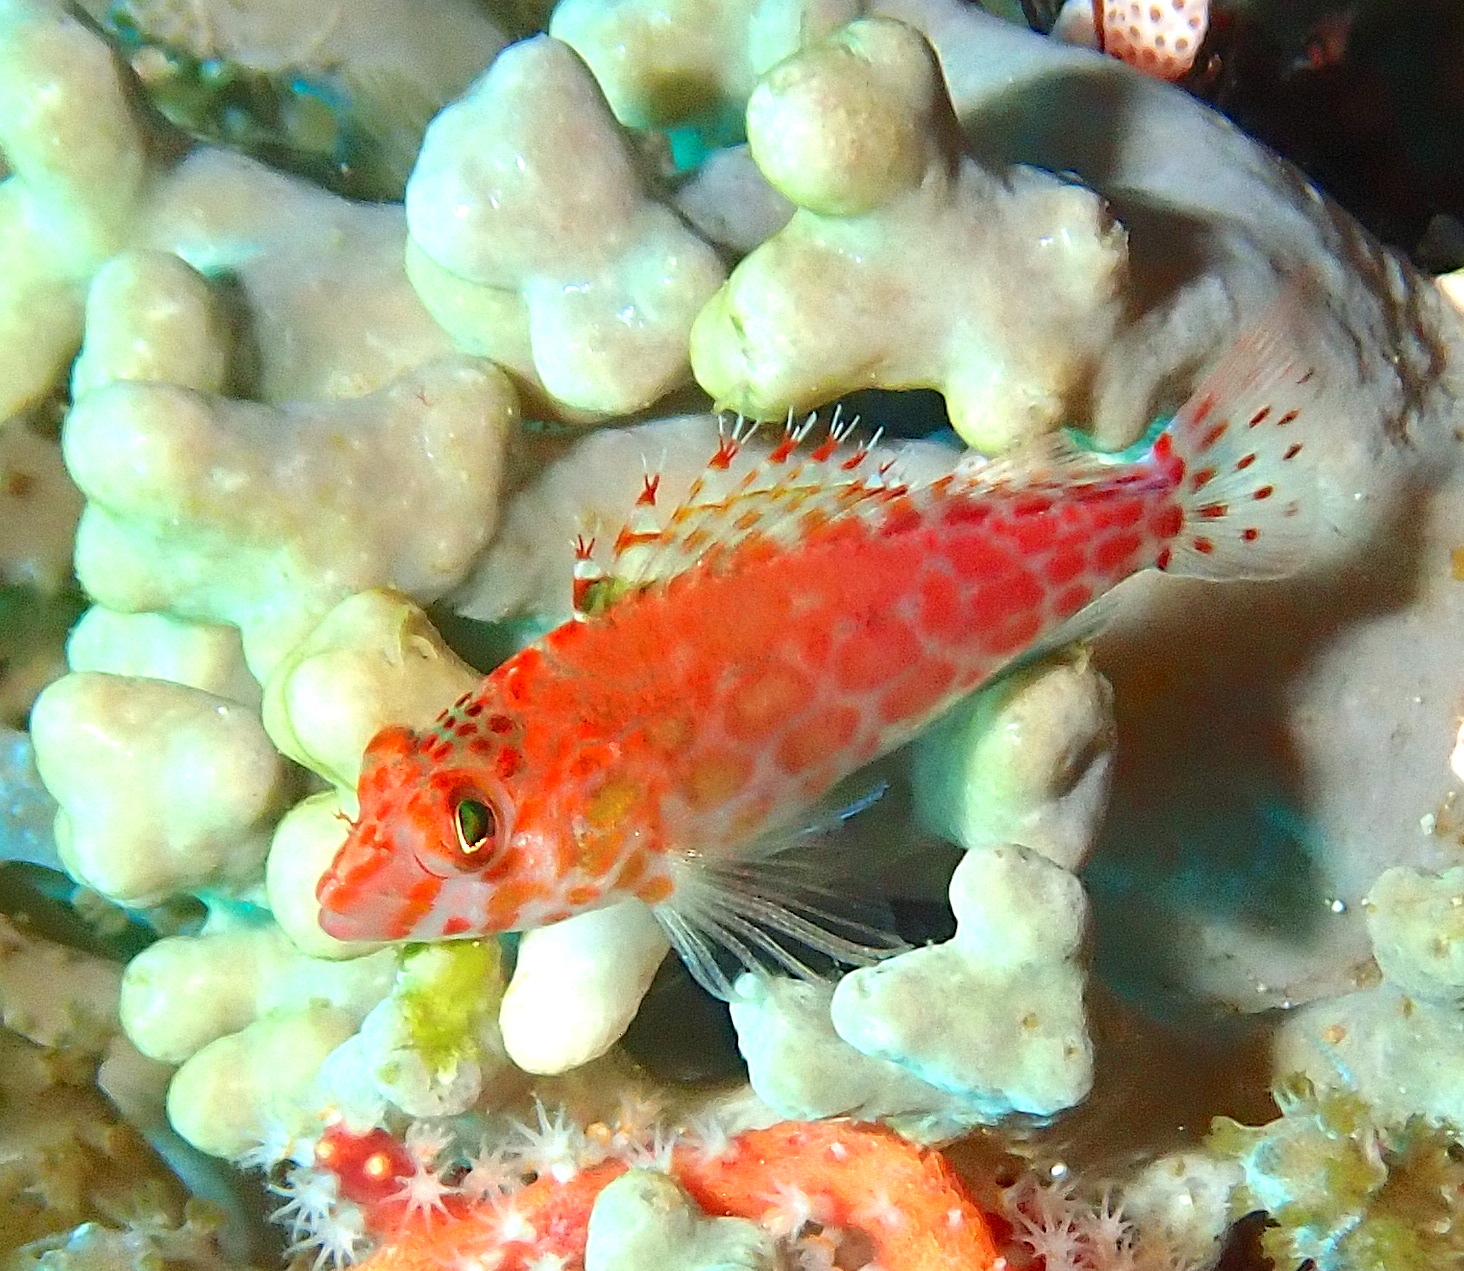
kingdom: Animalia
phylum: Chordata
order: Perciformes
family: Cirrhitidae
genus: Cirrhitichthys
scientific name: Cirrhitichthys oxycephalus
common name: Spotted hawkfish
